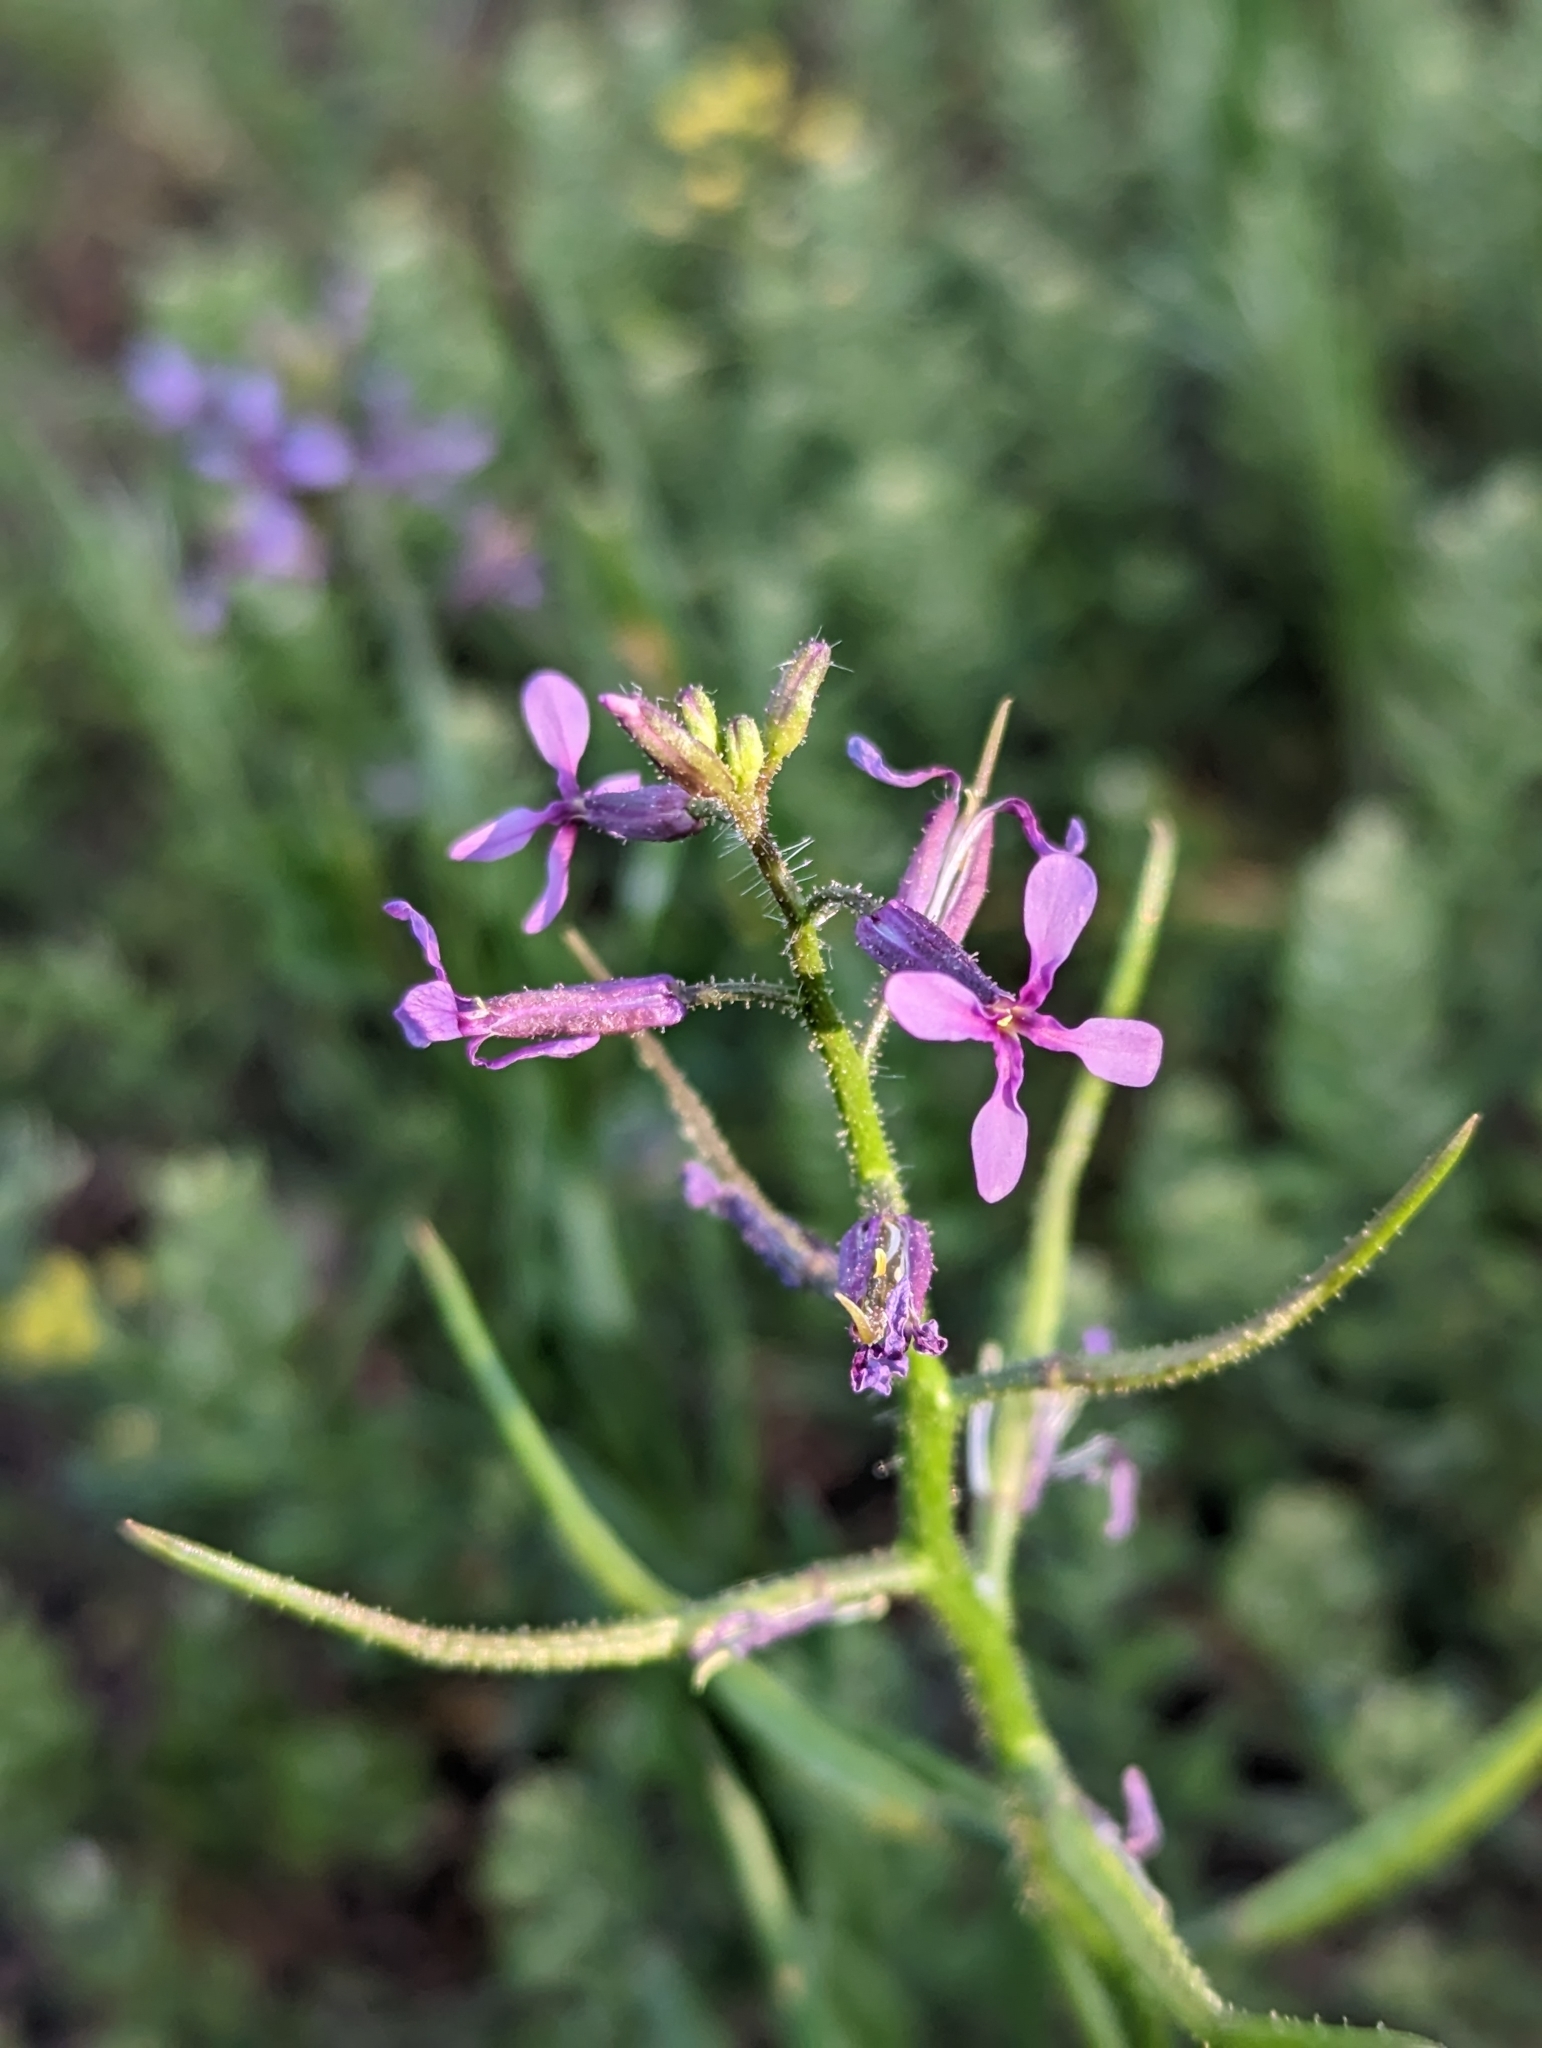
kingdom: Plantae
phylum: Tracheophyta
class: Magnoliopsida
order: Brassicales
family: Brassicaceae
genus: Chorispora
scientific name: Chorispora tenella
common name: Crossflower
